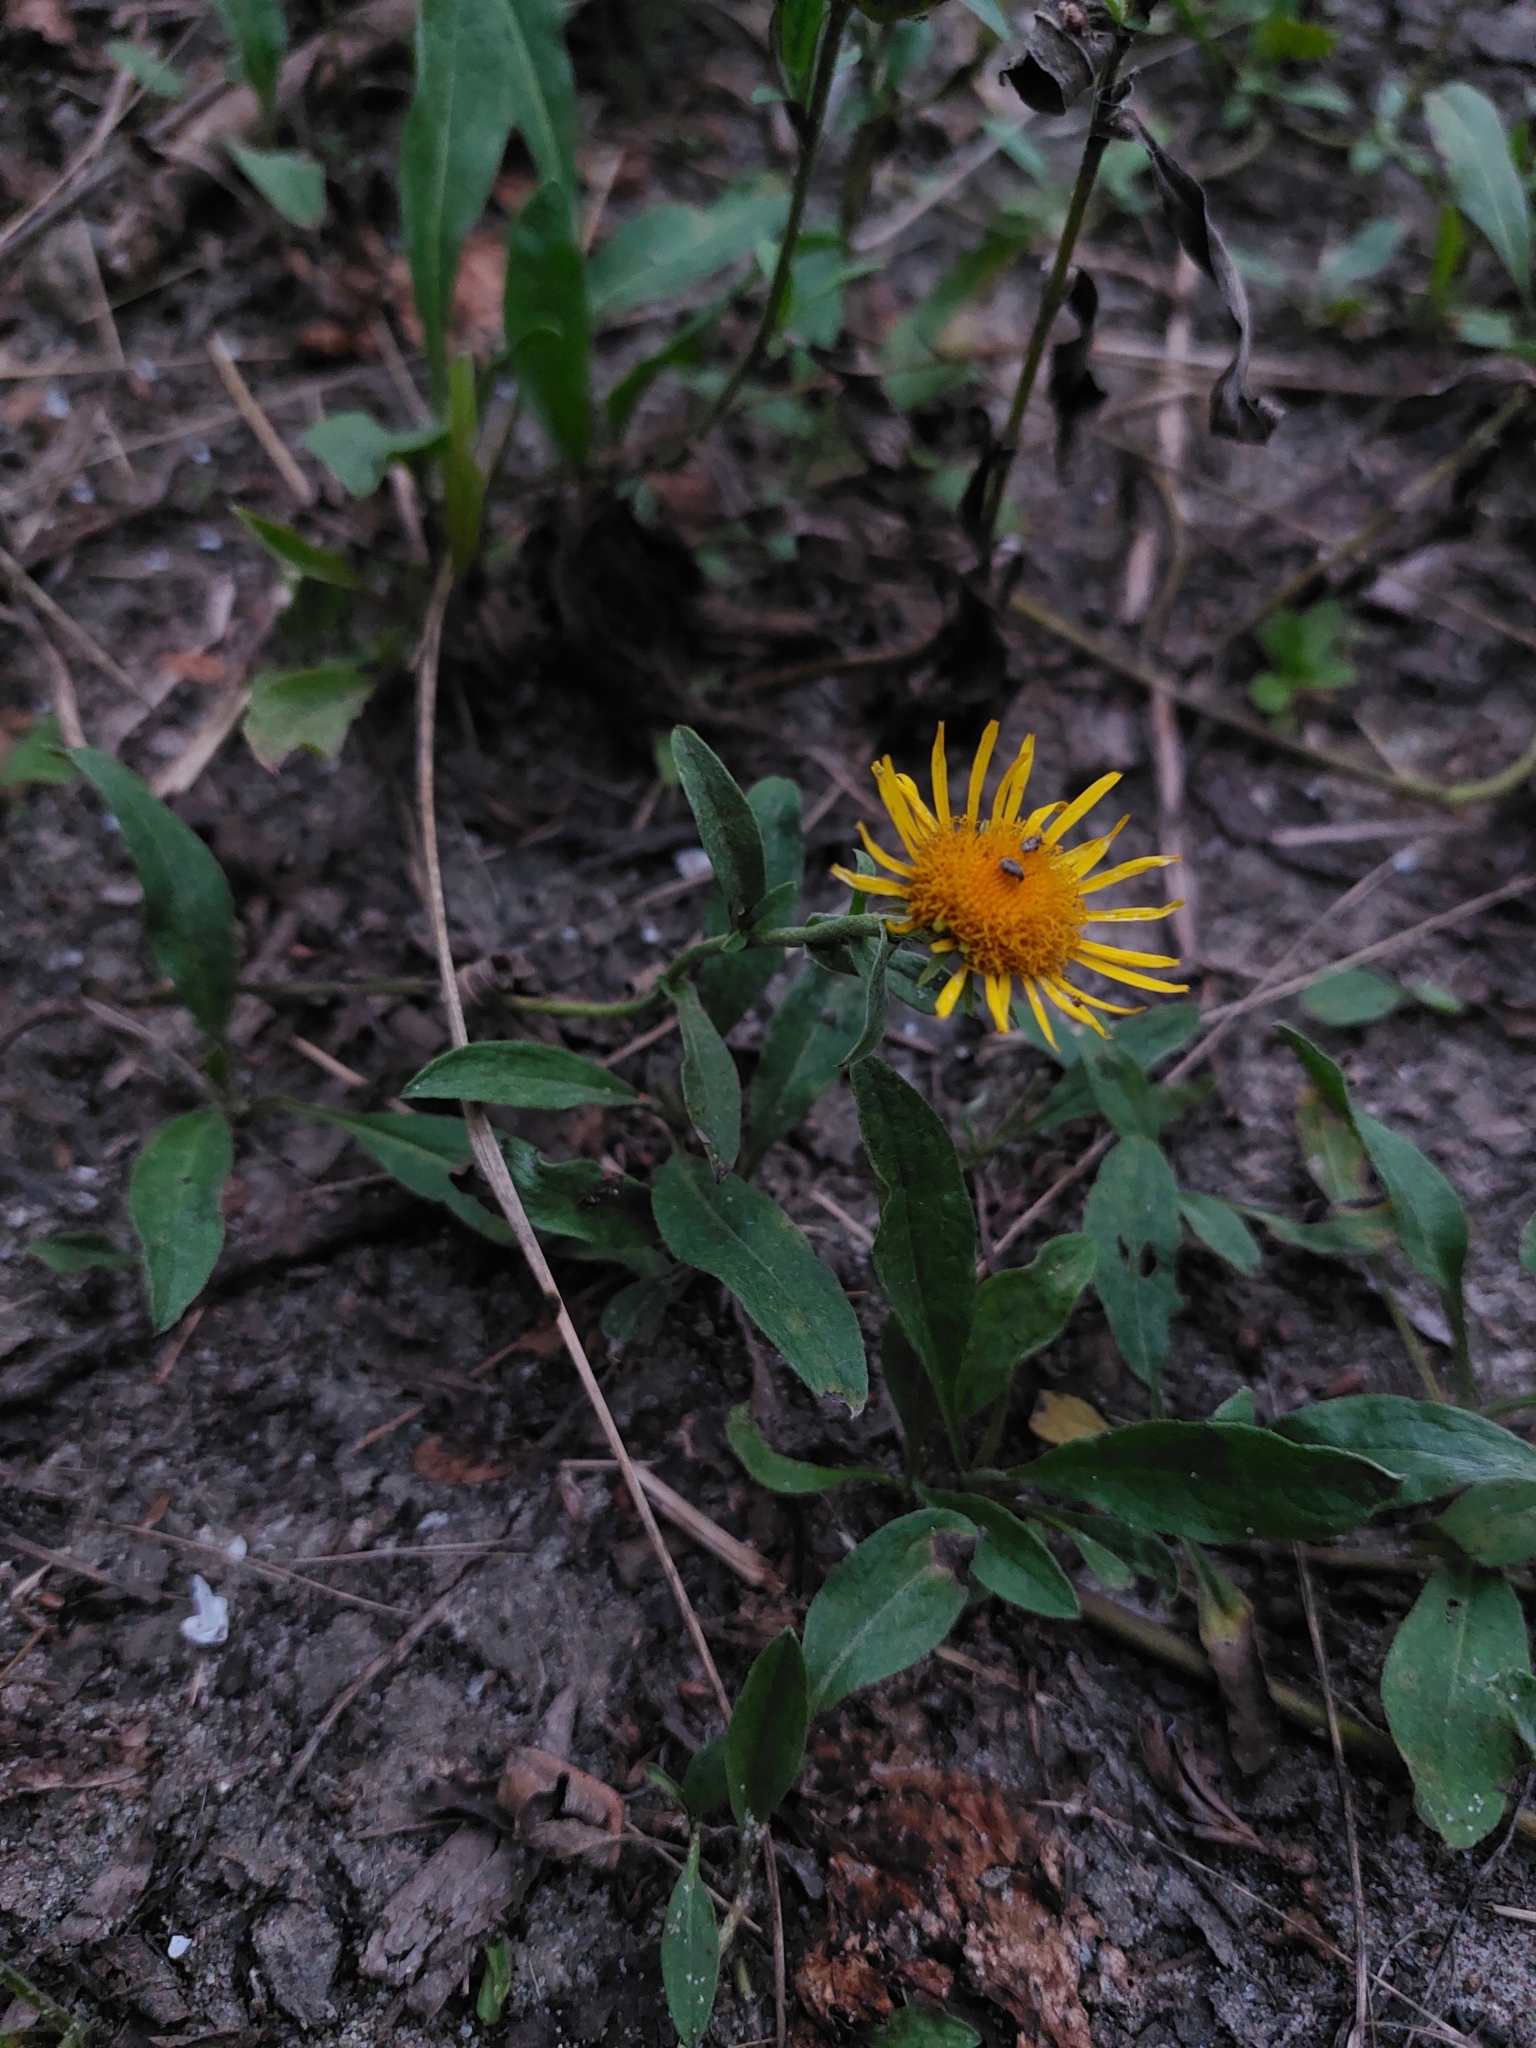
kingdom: Plantae
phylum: Tracheophyta
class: Magnoliopsida
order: Asterales
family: Asteraceae
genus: Pentanema
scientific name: Pentanema britannicum
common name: British elecampane
